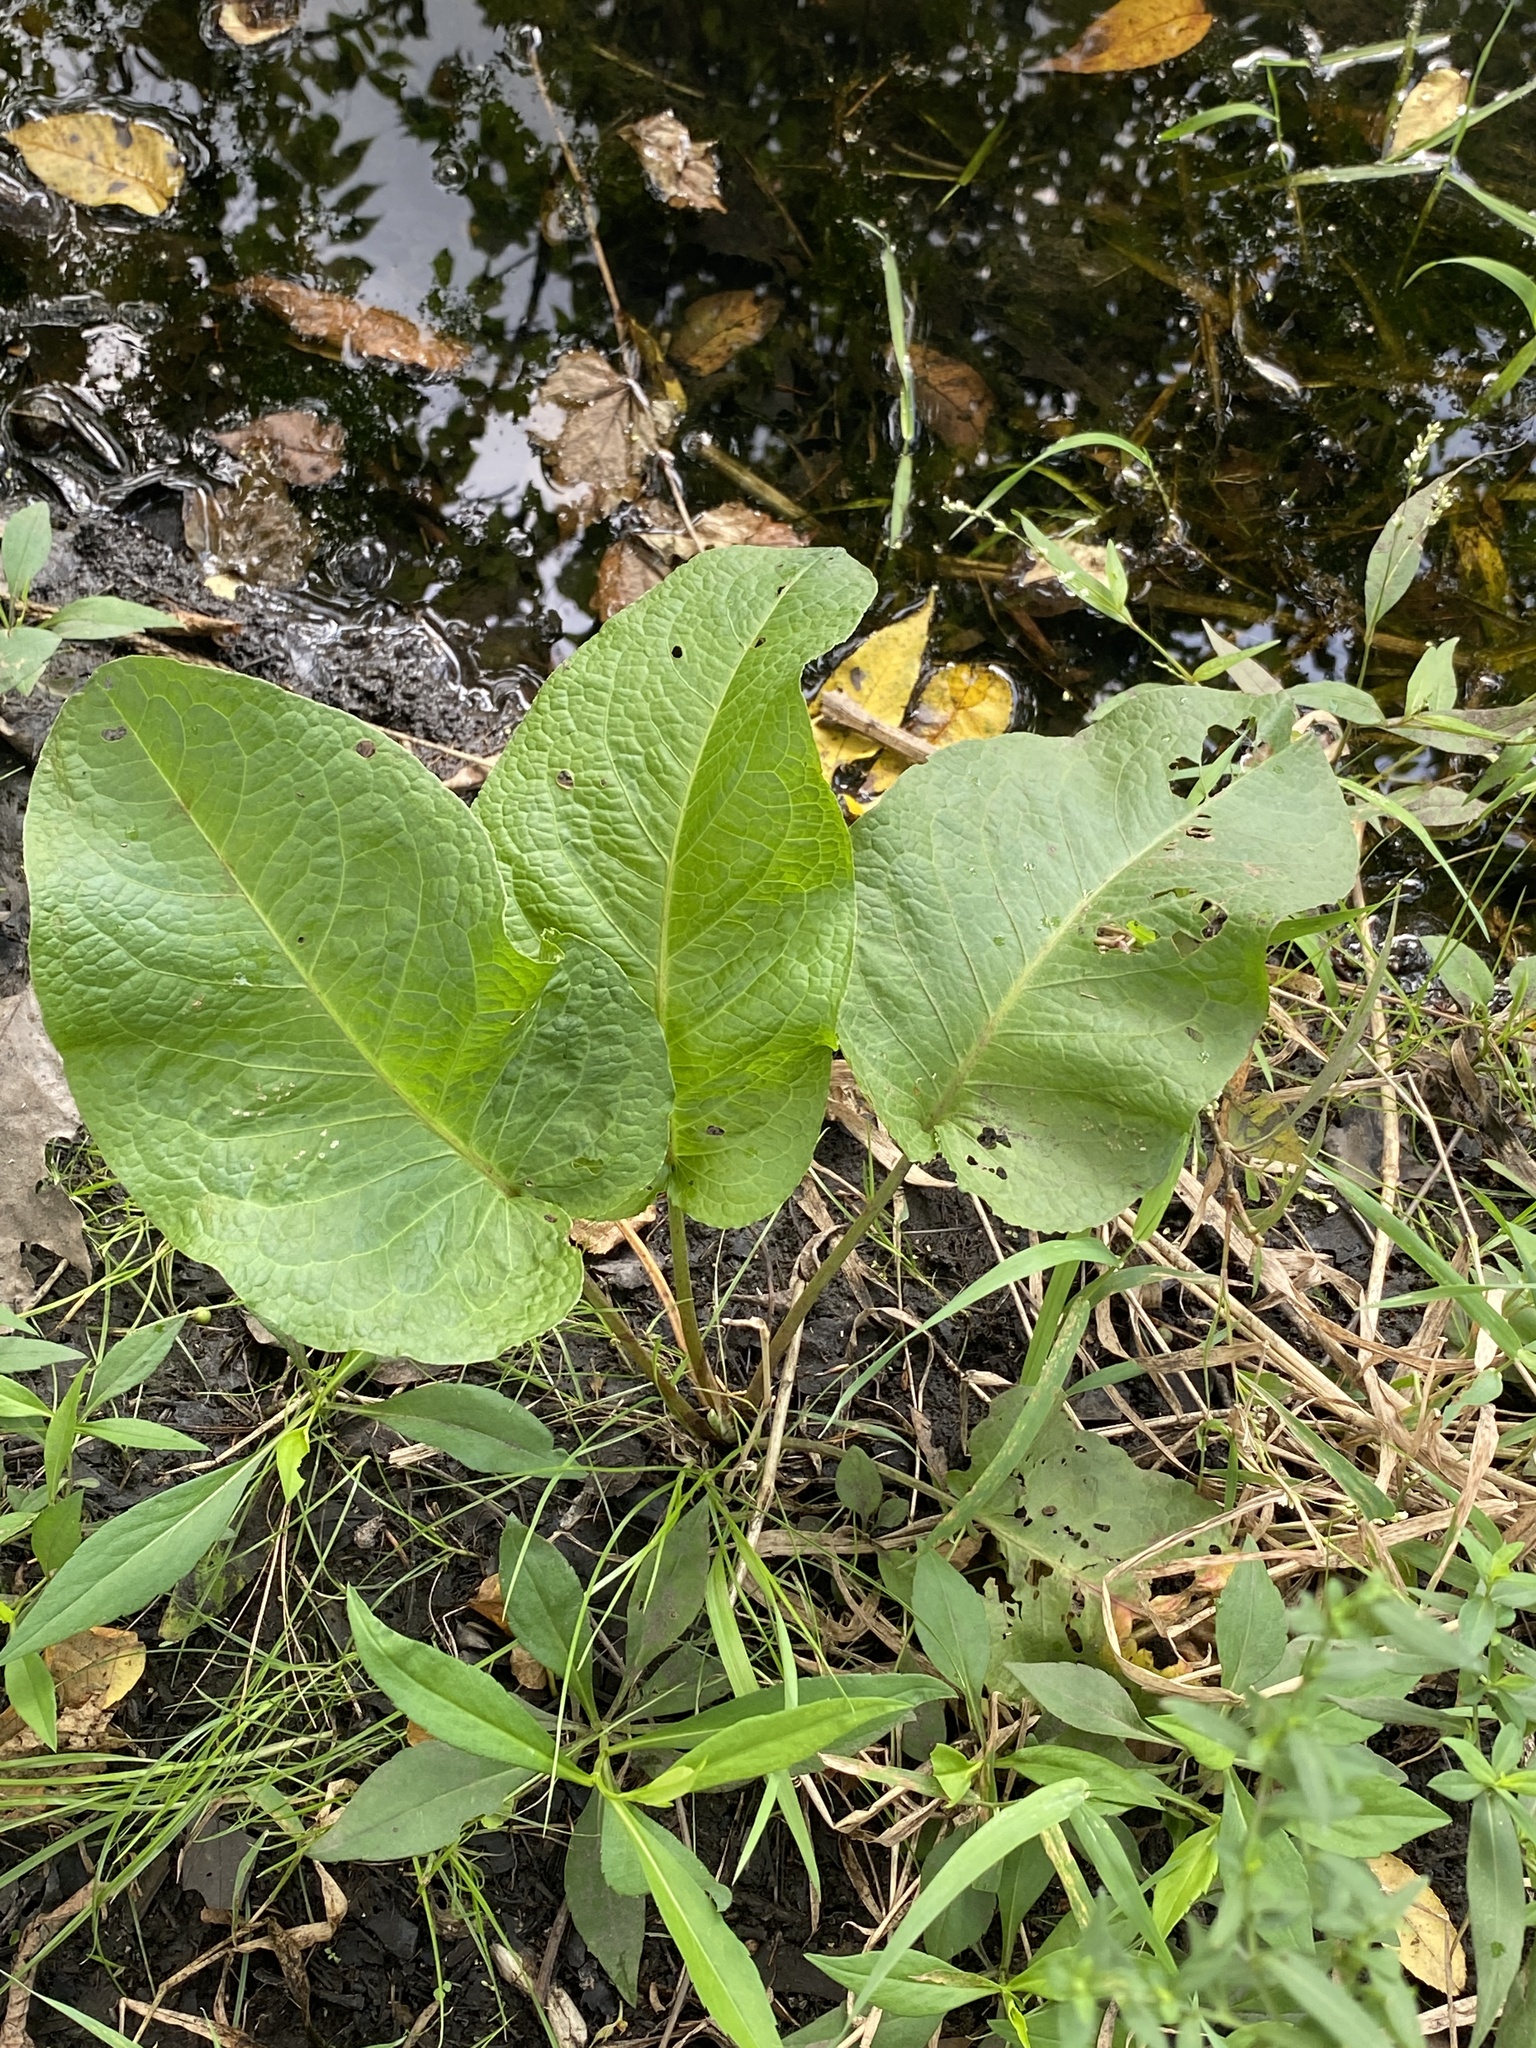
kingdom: Plantae
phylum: Tracheophyta
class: Magnoliopsida
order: Caryophyllales
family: Polygonaceae
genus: Rumex
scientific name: Rumex obtusifolius
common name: Bitter dock
